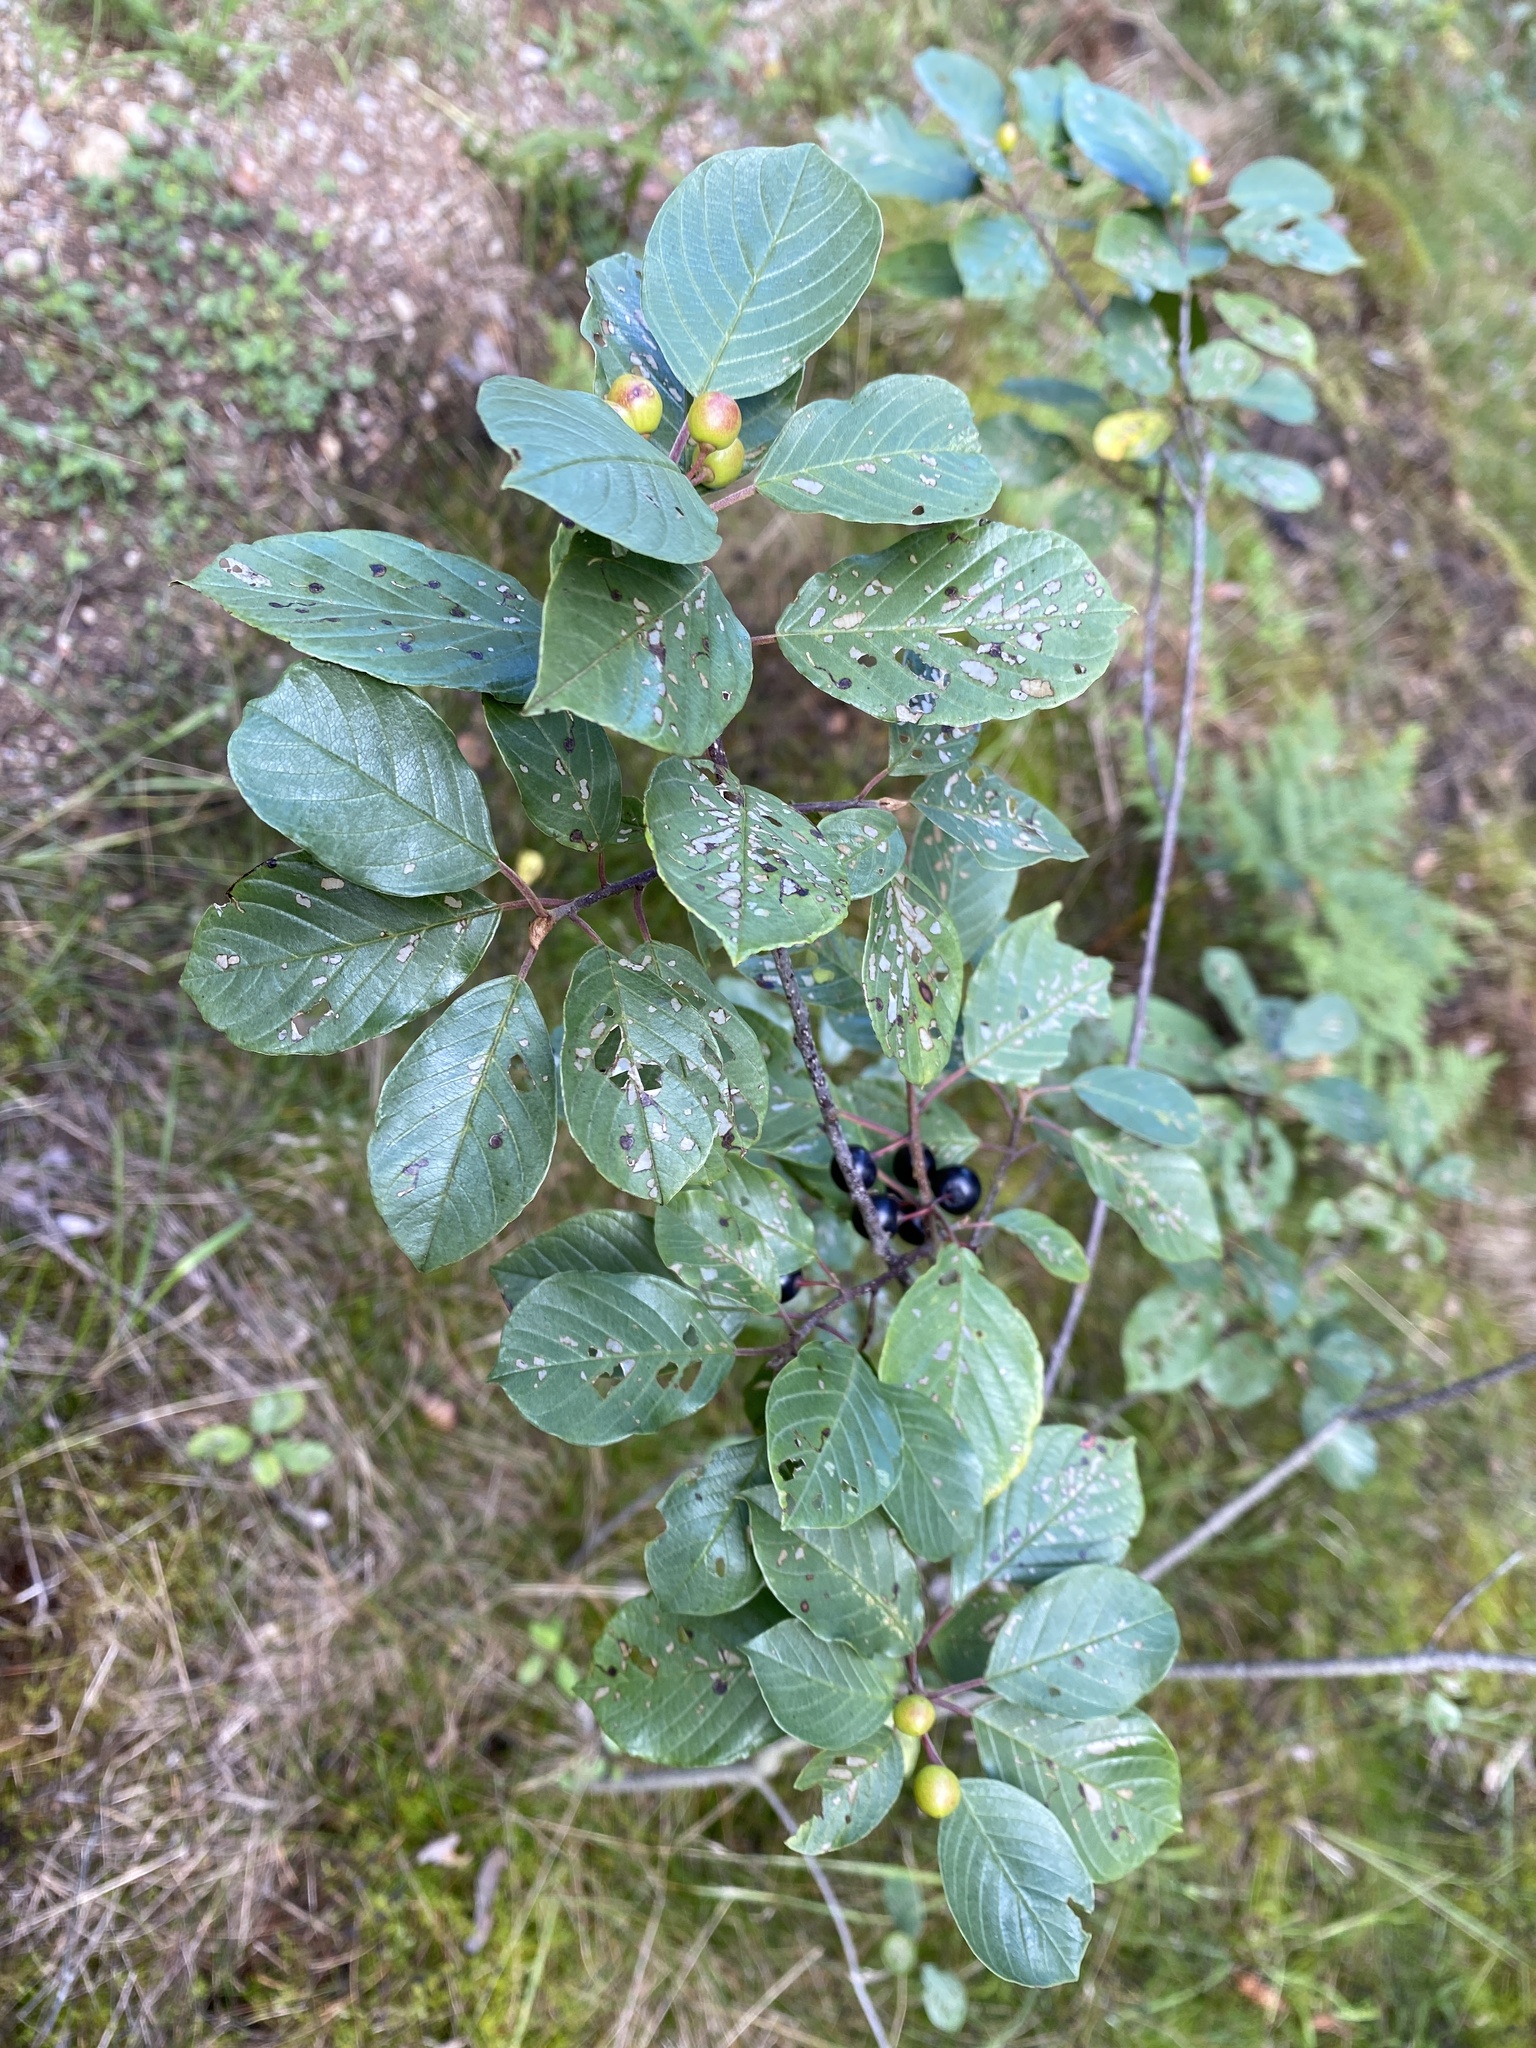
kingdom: Plantae
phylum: Tracheophyta
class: Magnoliopsida
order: Rosales
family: Rhamnaceae
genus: Frangula
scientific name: Frangula alnus
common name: Alder buckthorn
